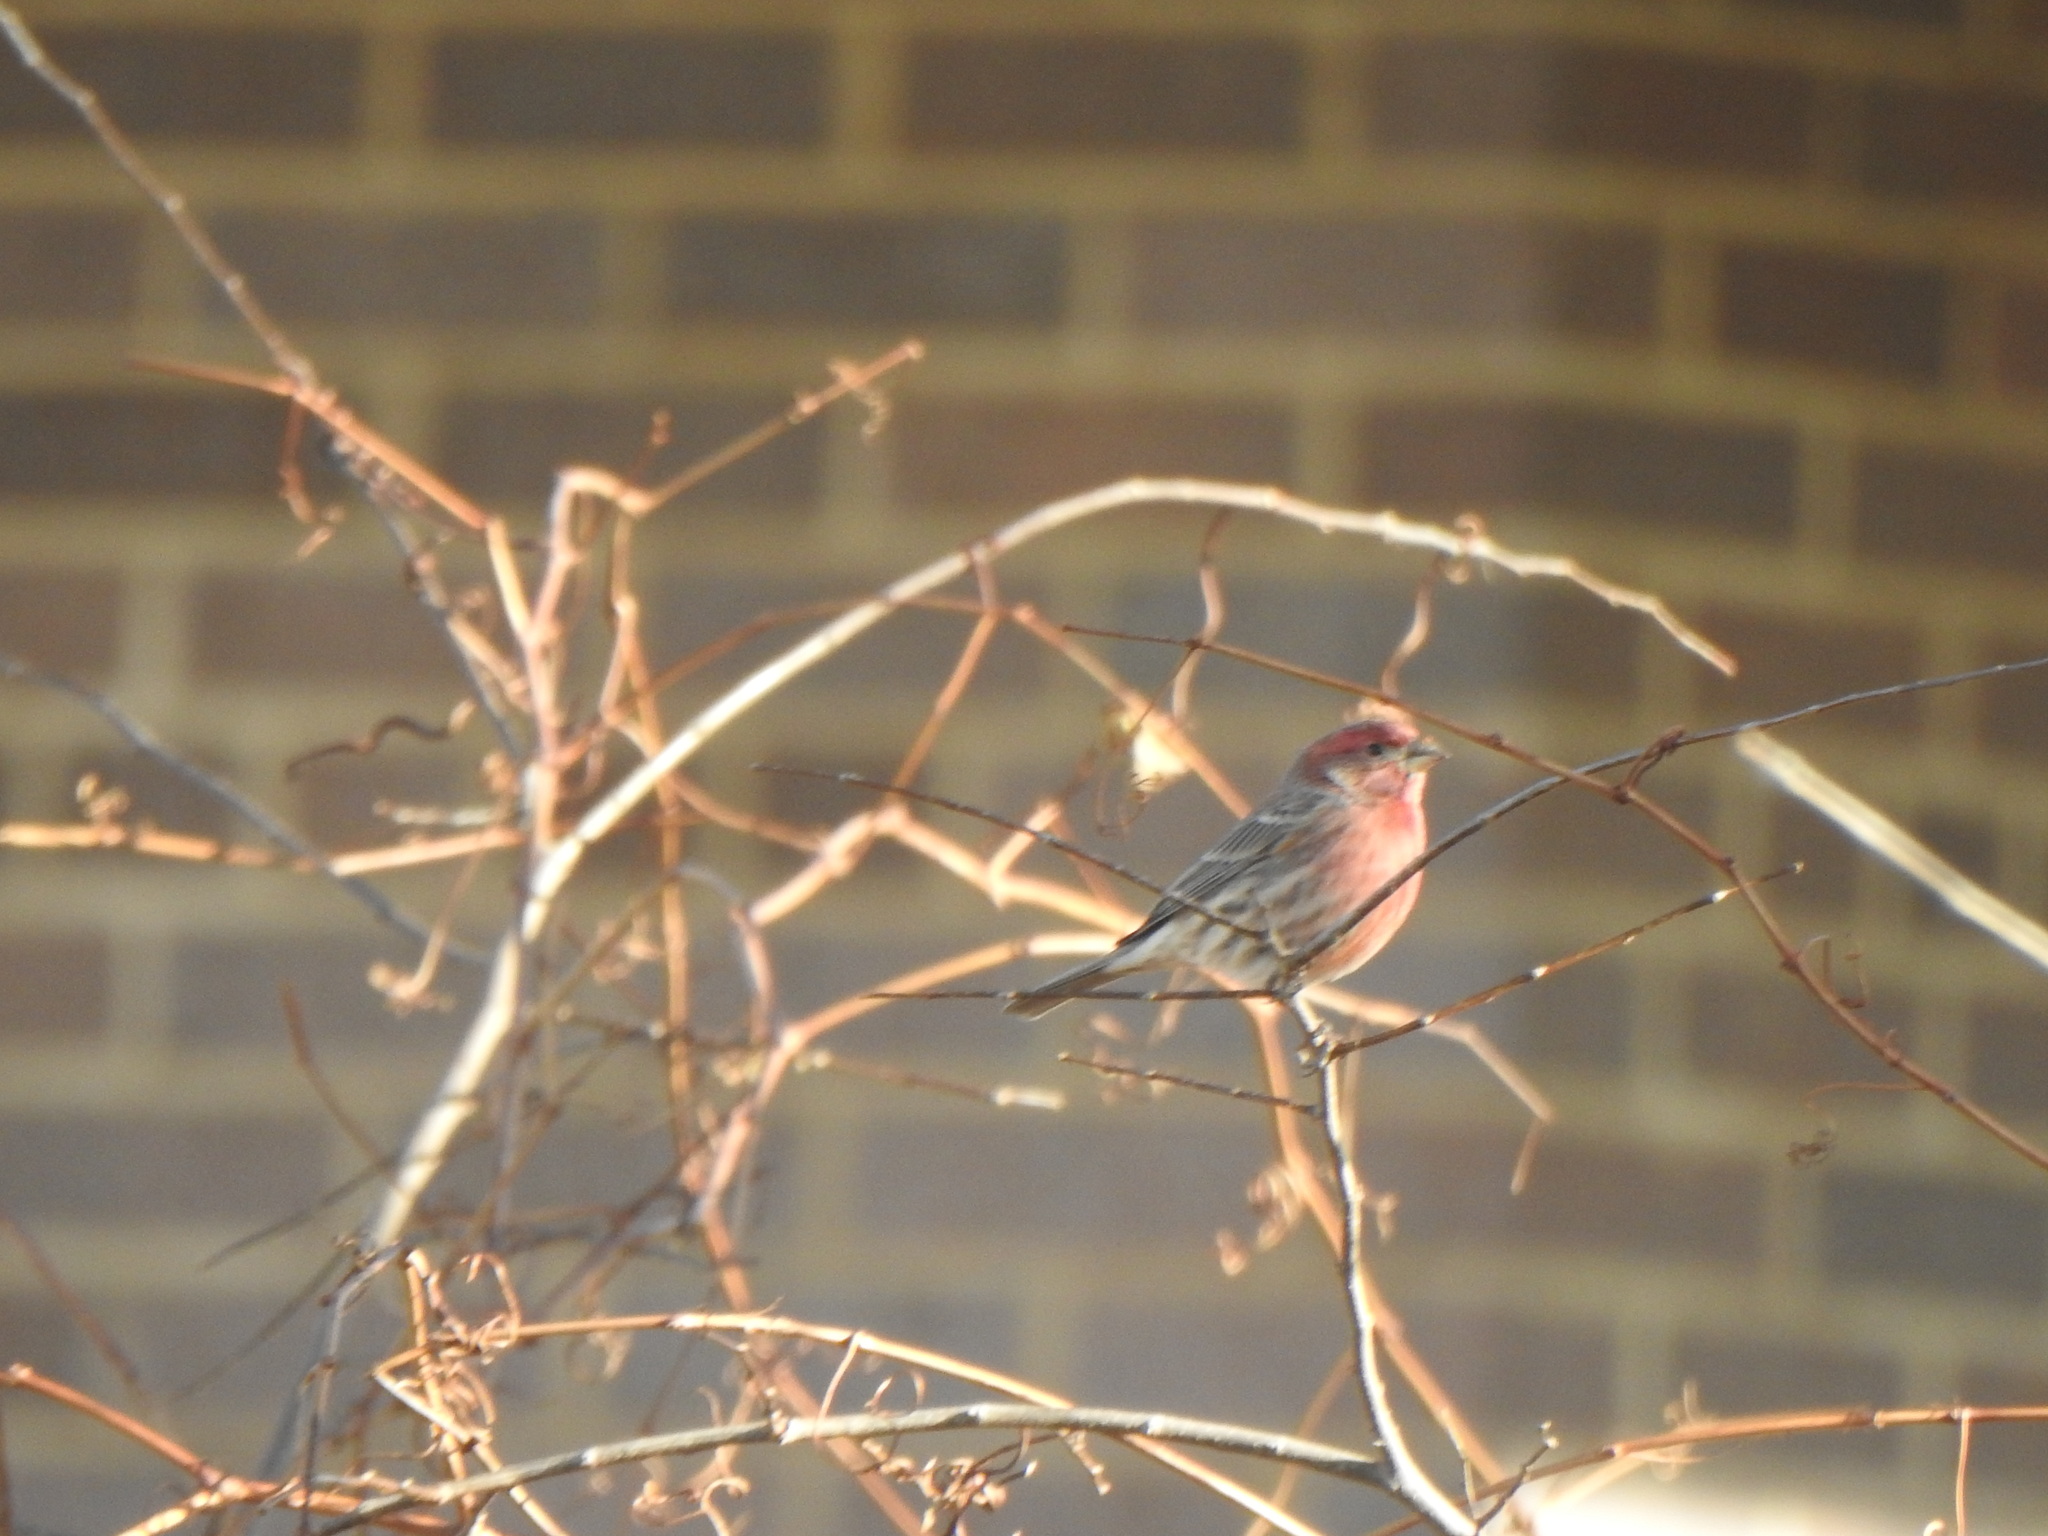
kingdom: Animalia
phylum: Chordata
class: Aves
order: Passeriformes
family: Fringillidae
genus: Haemorhous
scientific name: Haemorhous mexicanus
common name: House finch
